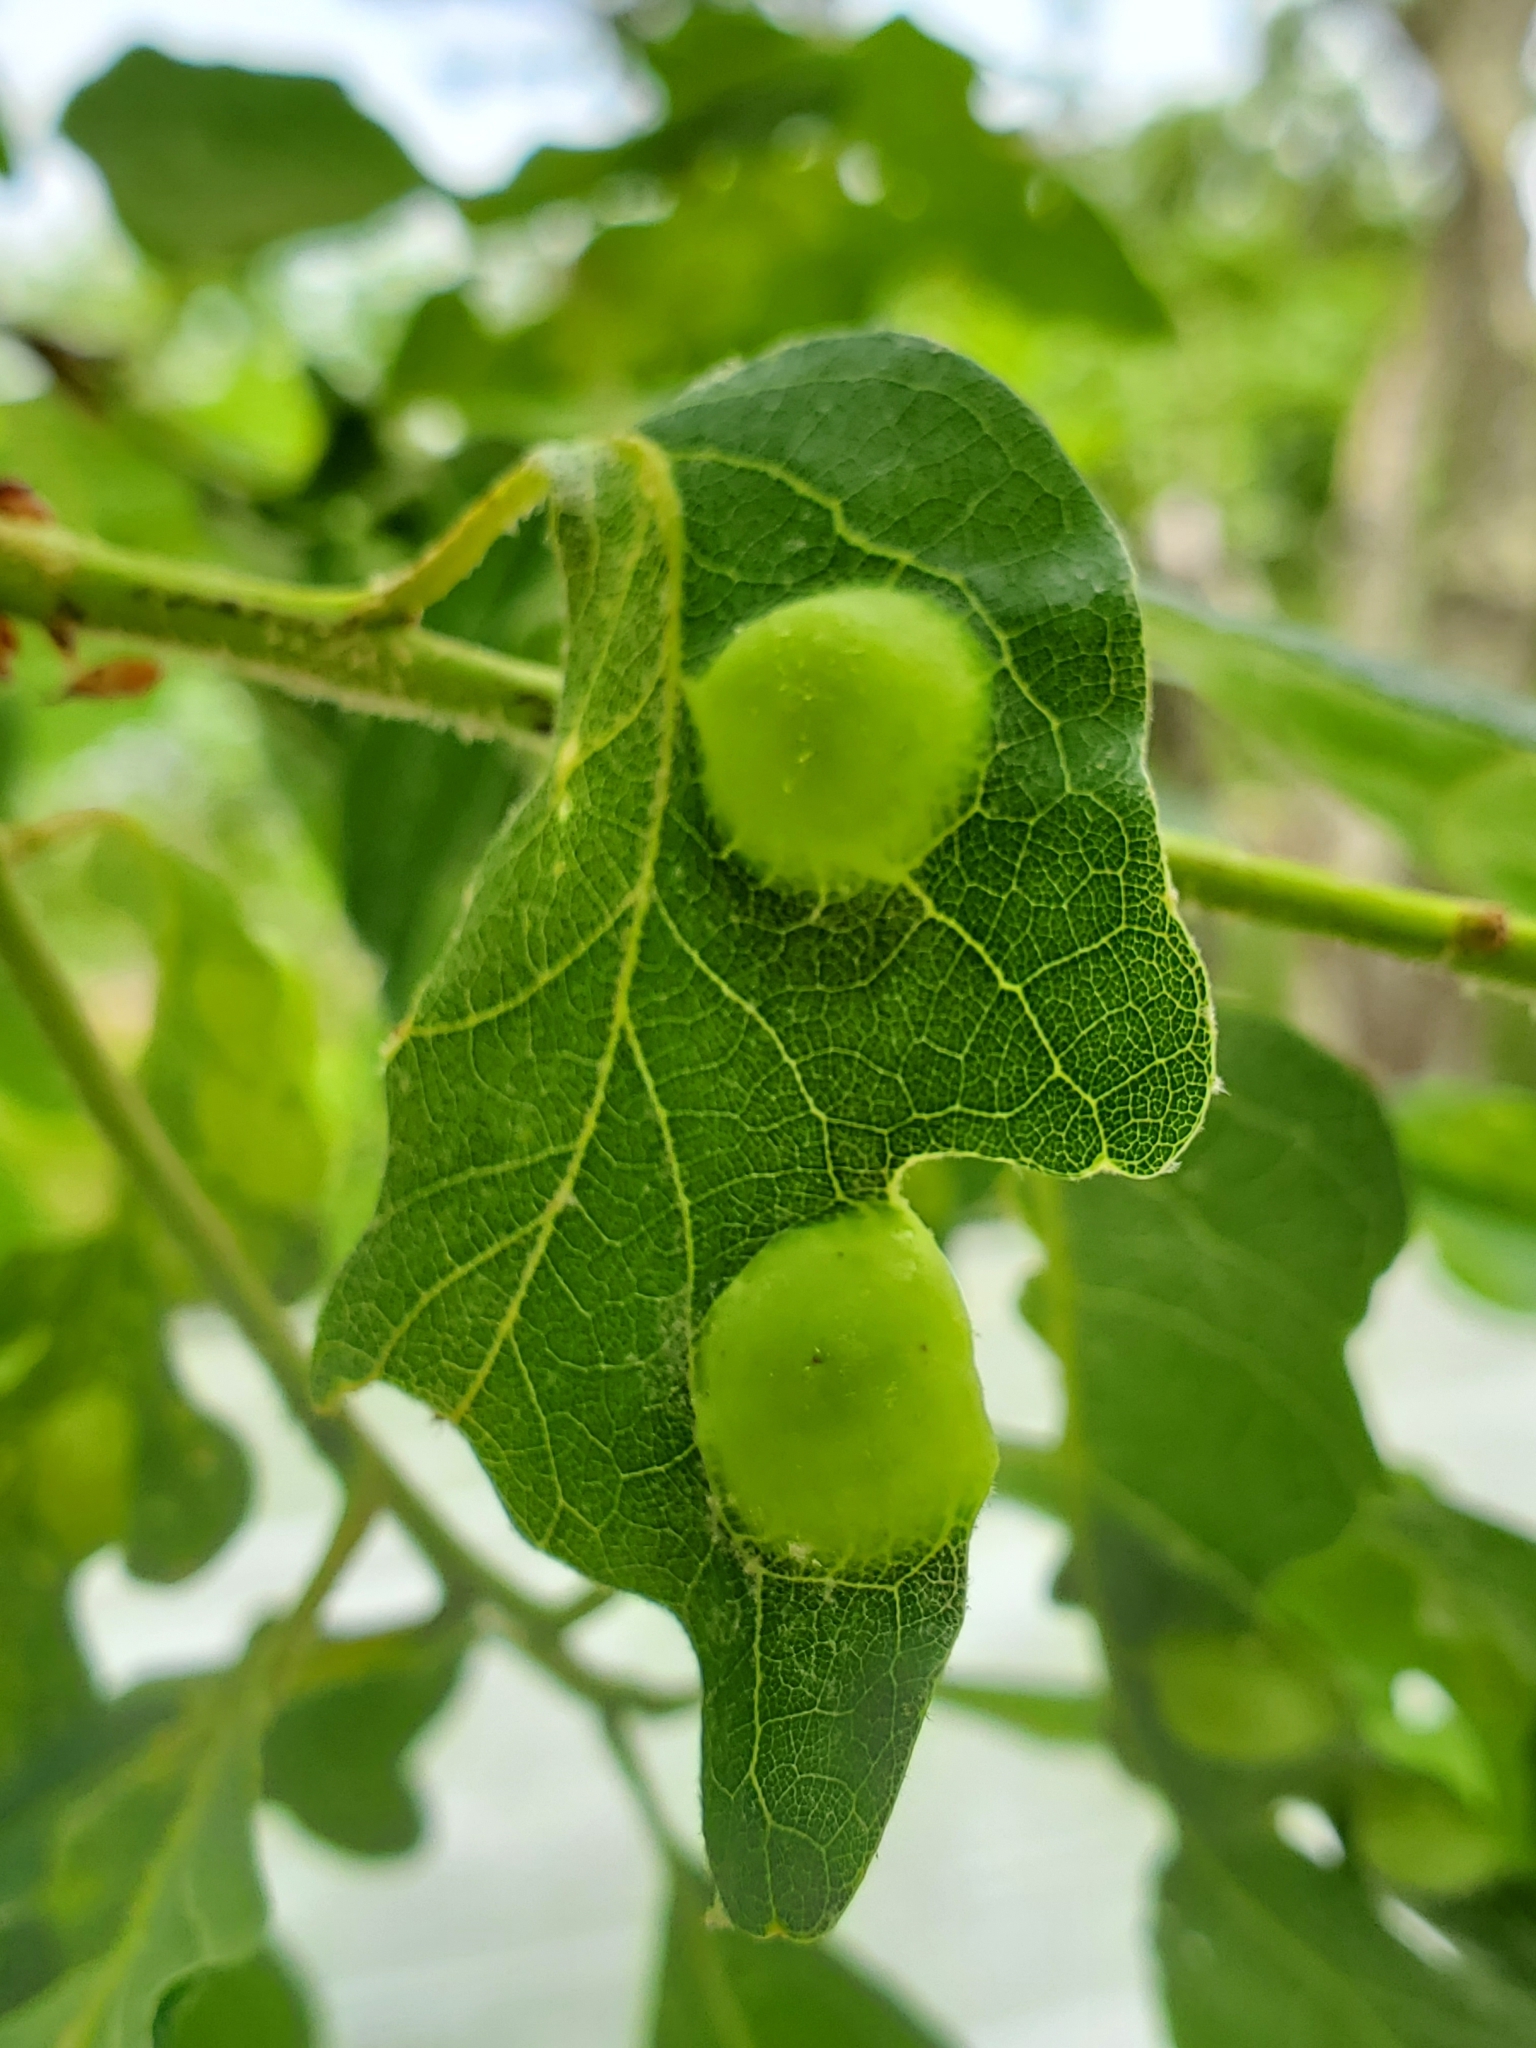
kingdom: Animalia
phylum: Arthropoda
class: Insecta
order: Hymenoptera
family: Cynipidae
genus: Callirhytis
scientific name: Callirhytis
